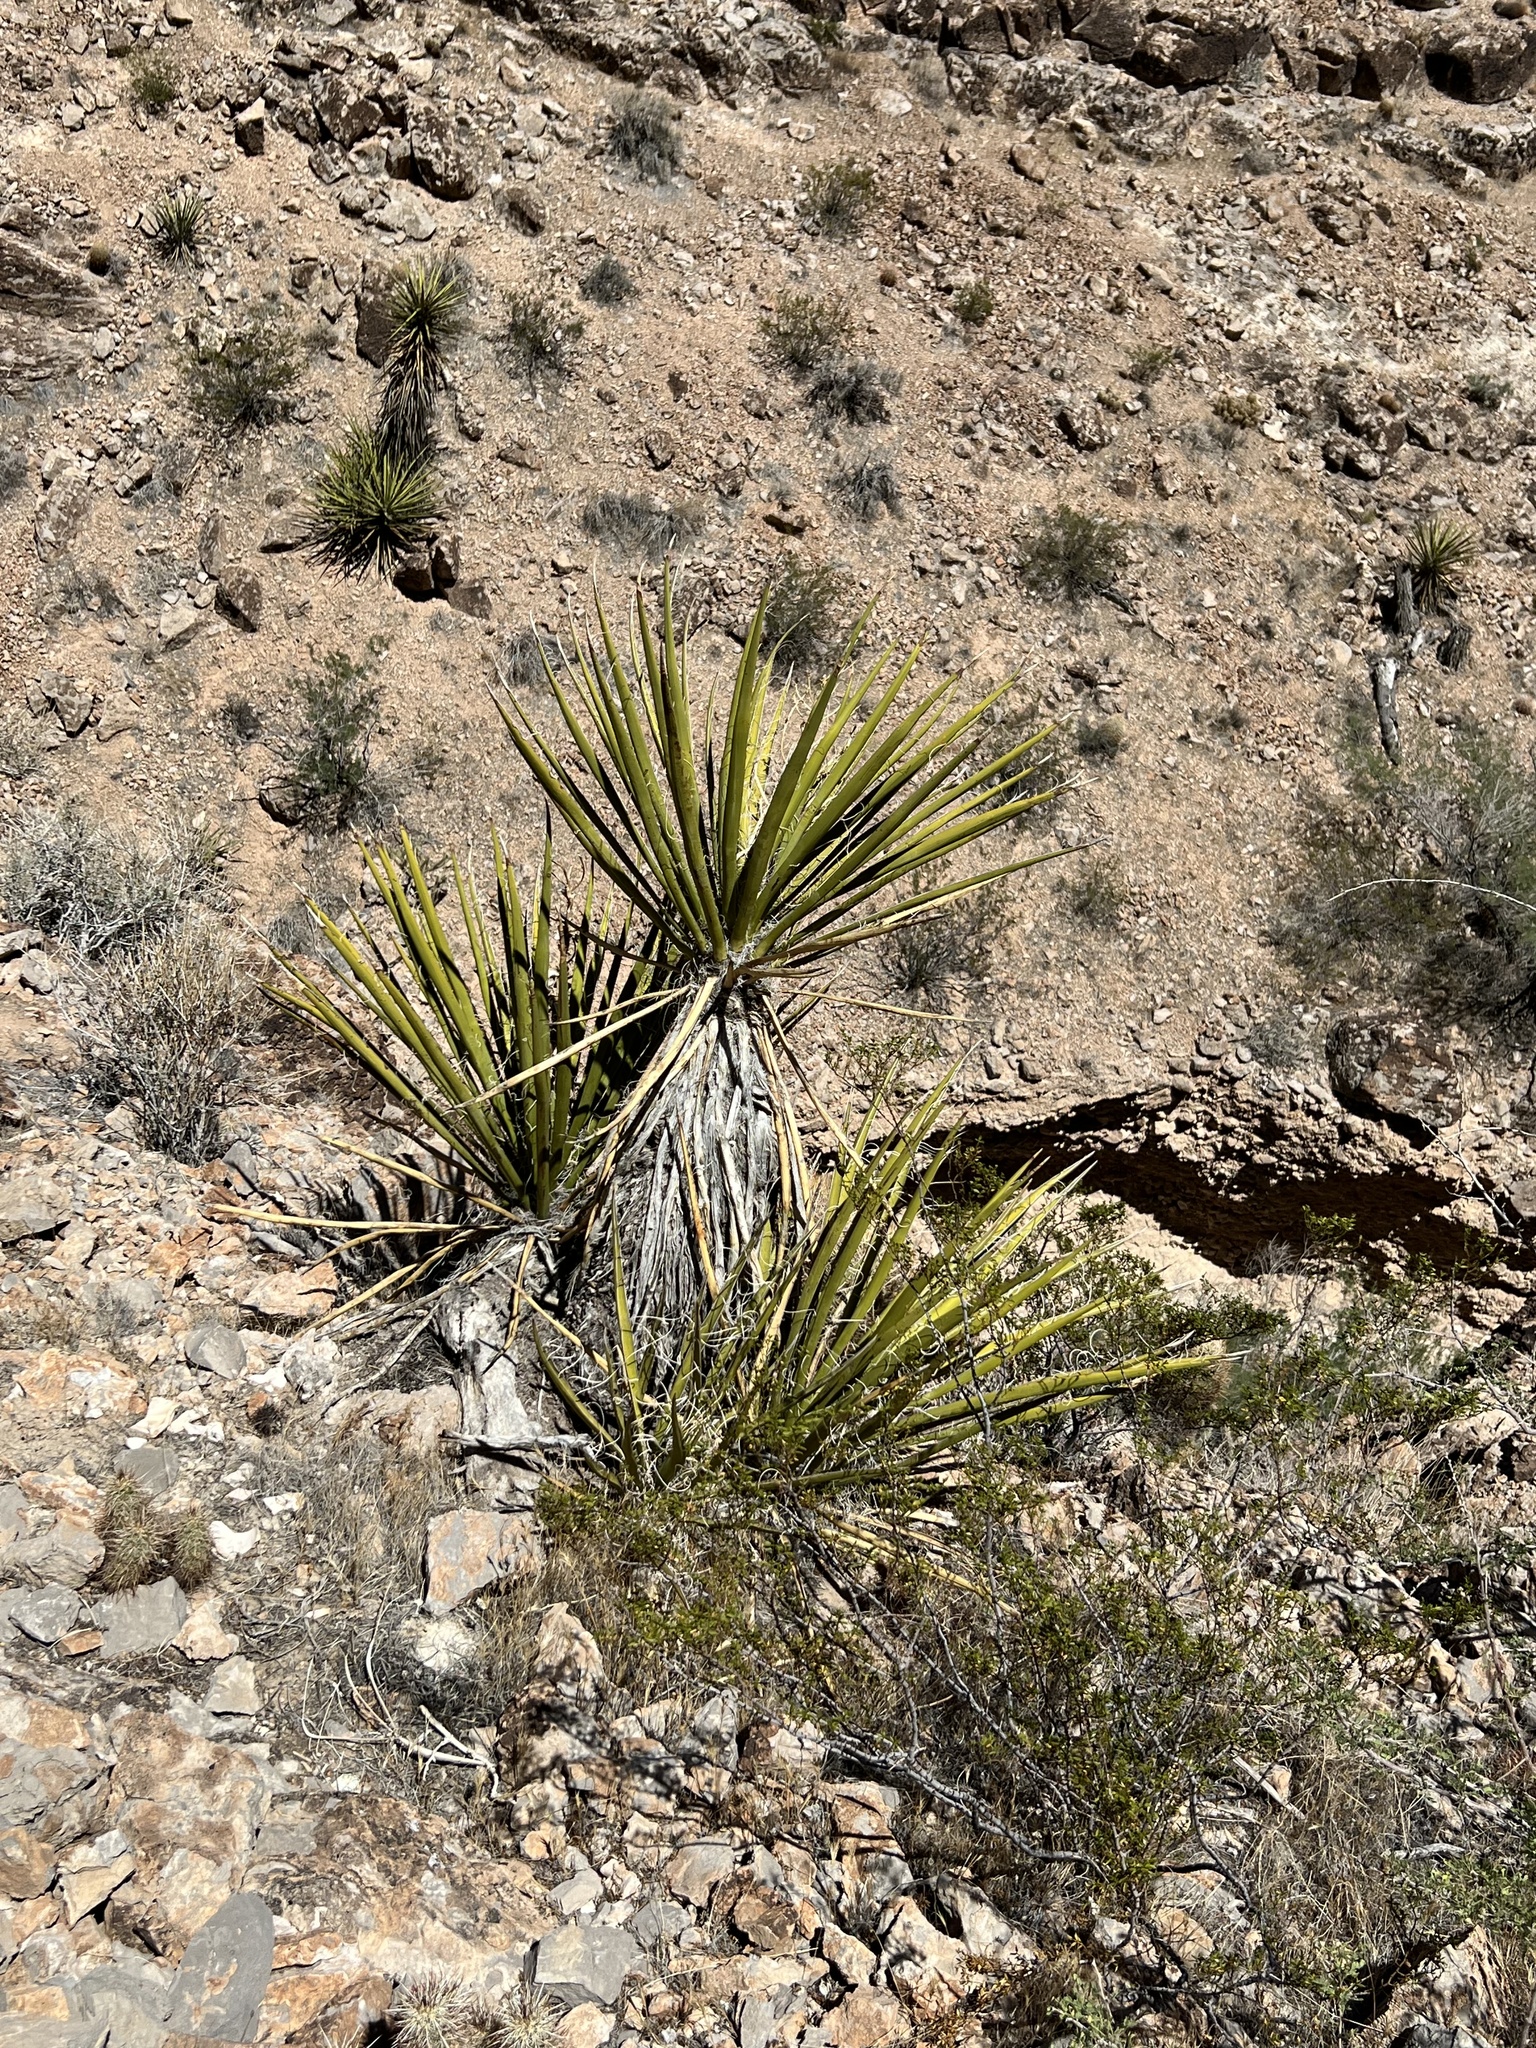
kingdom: Plantae
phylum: Tracheophyta
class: Liliopsida
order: Asparagales
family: Asparagaceae
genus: Yucca
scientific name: Yucca schidigera
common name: Mojave yucca
